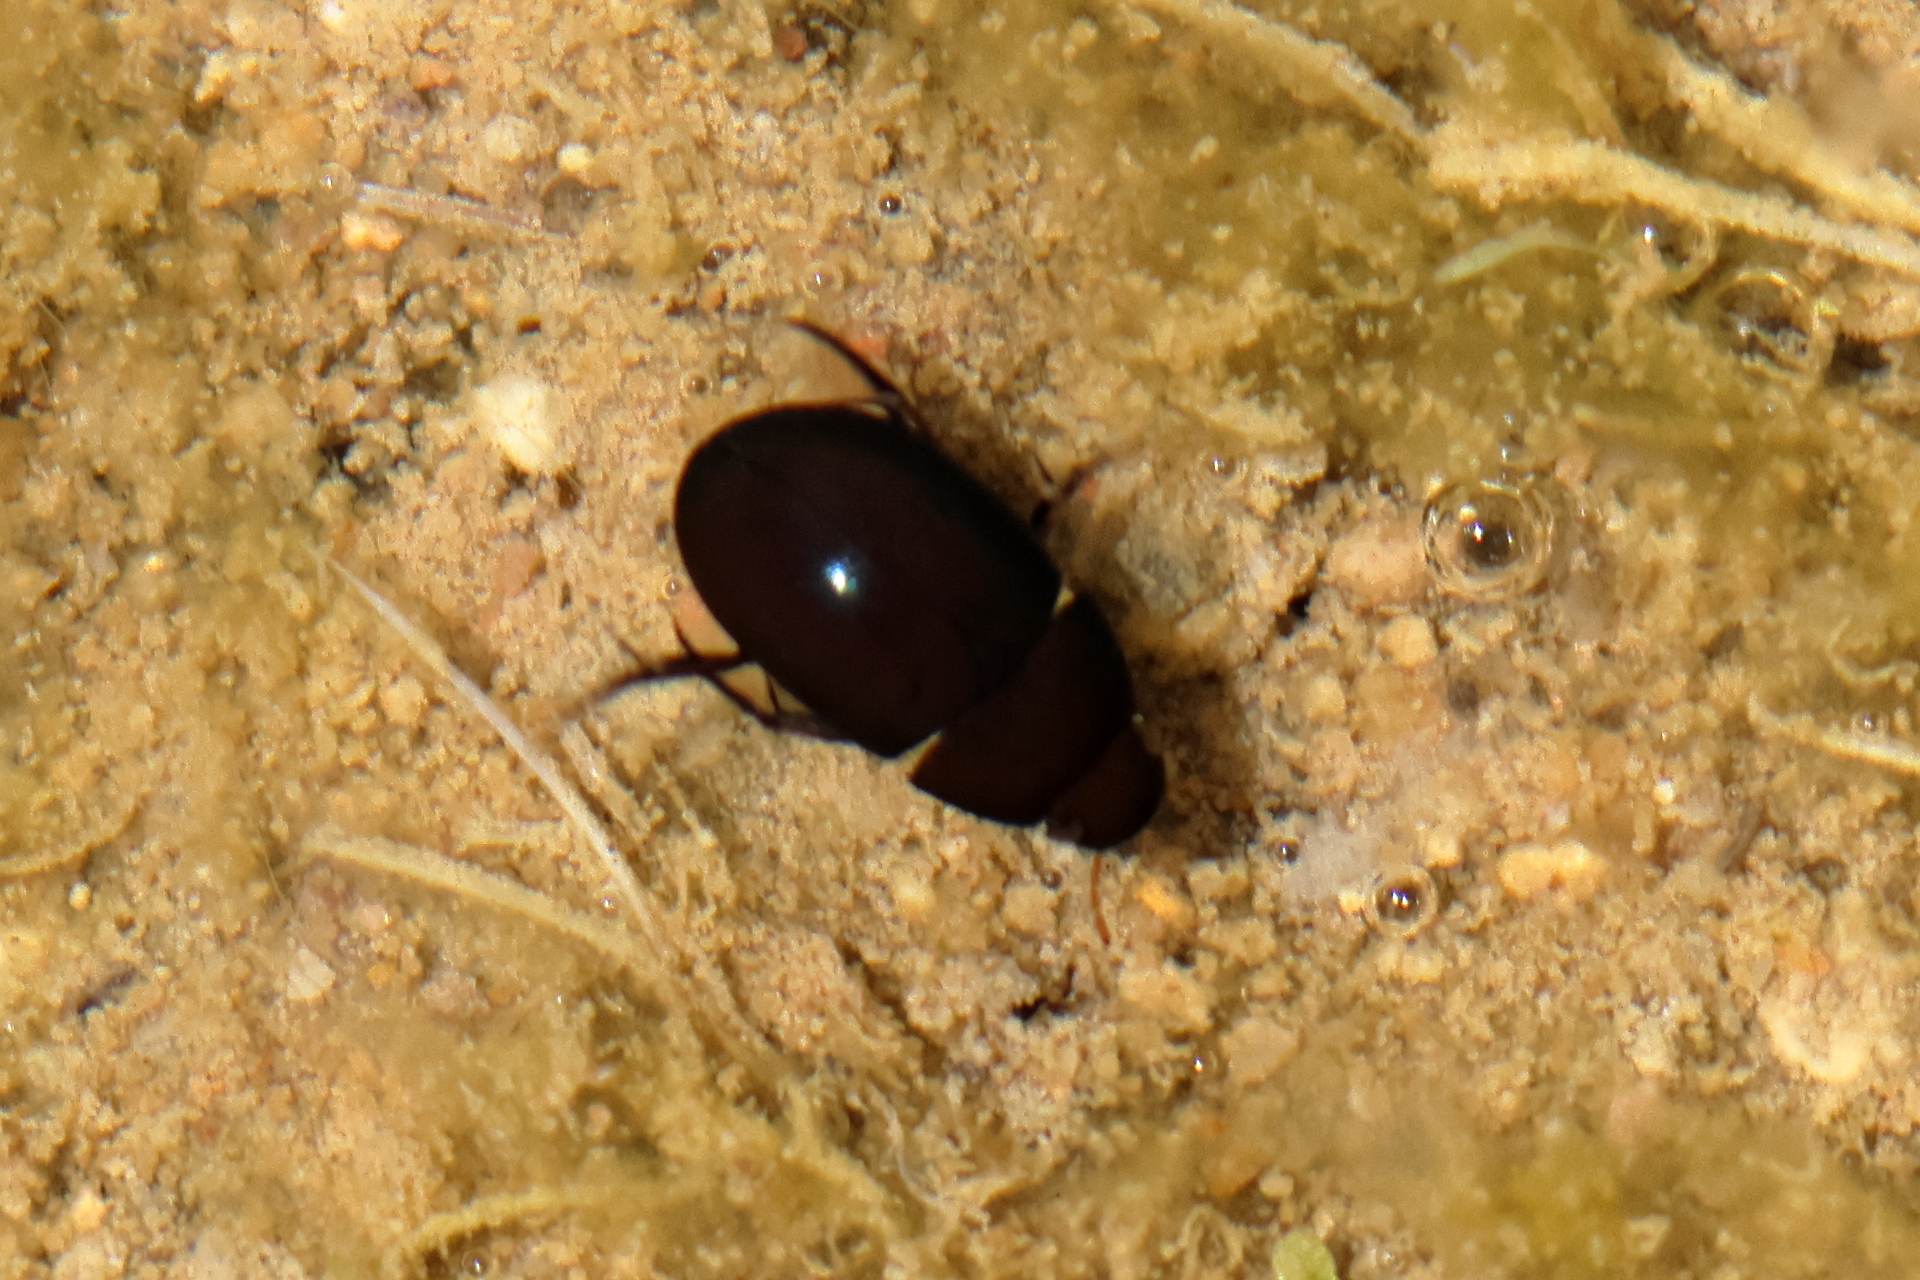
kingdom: Animalia
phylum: Arthropoda
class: Insecta
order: Coleoptera
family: Hydrophilidae
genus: Tropisternus
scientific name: Tropisternus
